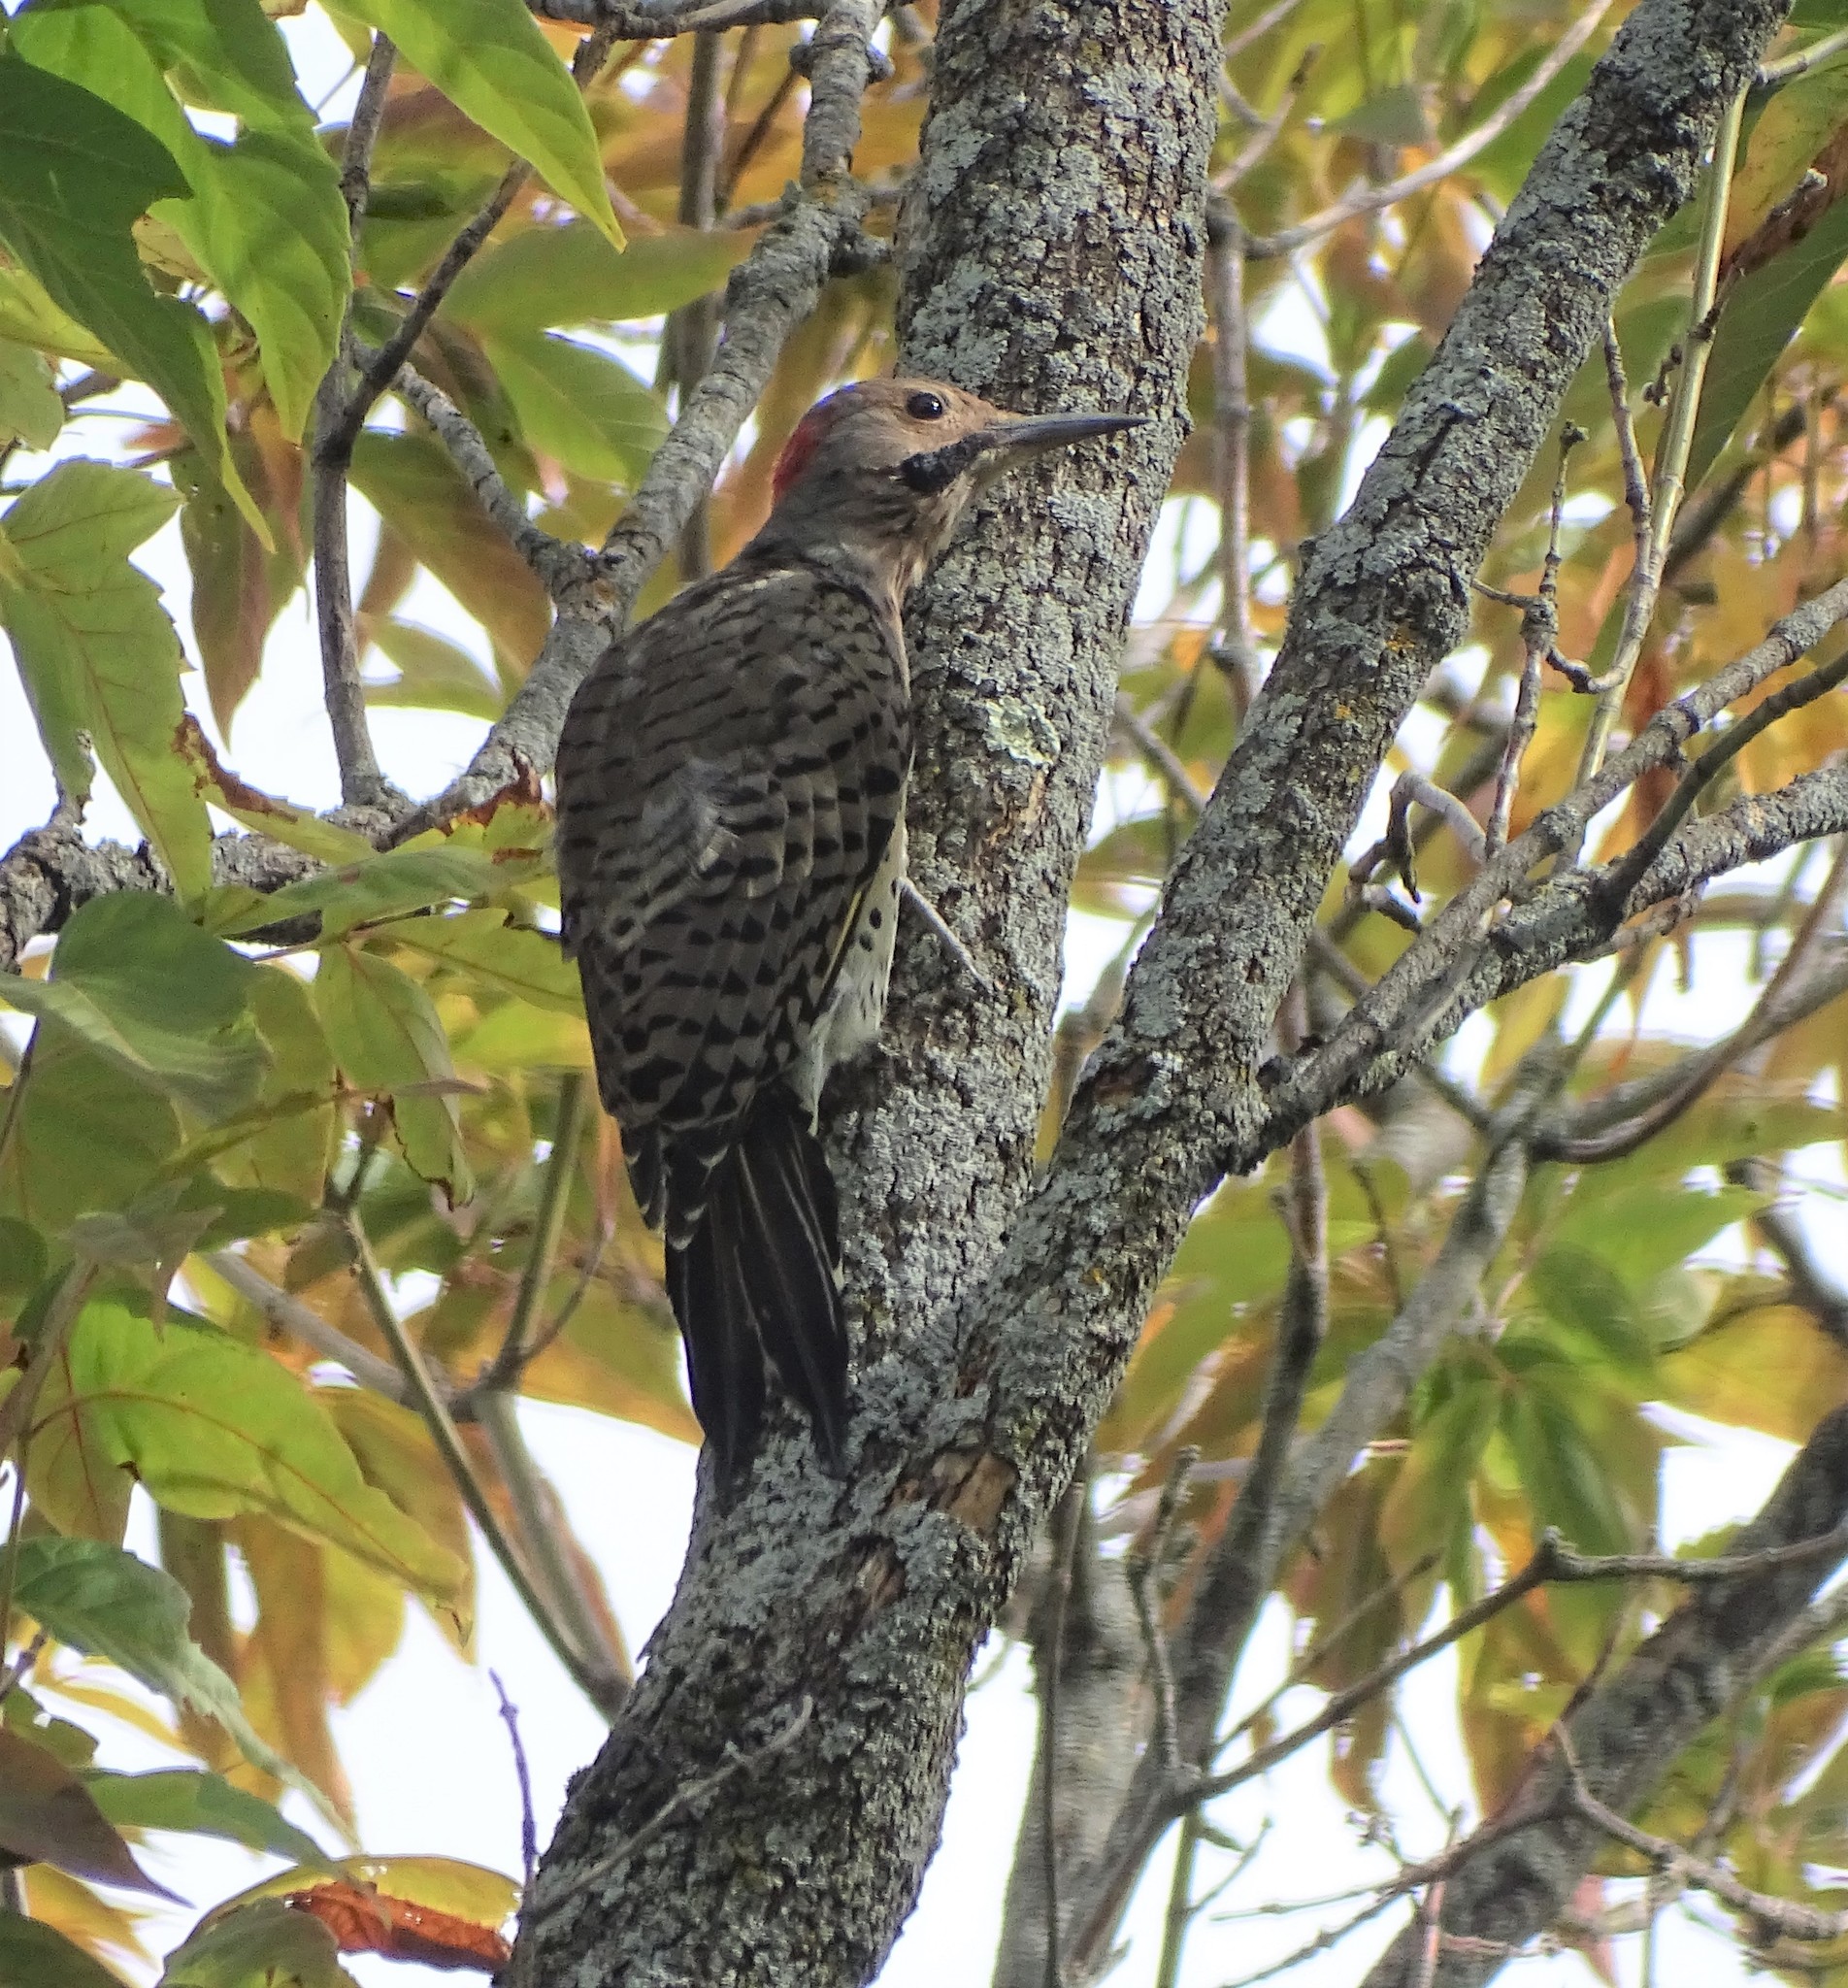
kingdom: Animalia
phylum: Chordata
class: Aves
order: Piciformes
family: Picidae
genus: Colaptes
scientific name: Colaptes auratus
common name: Northern flicker
